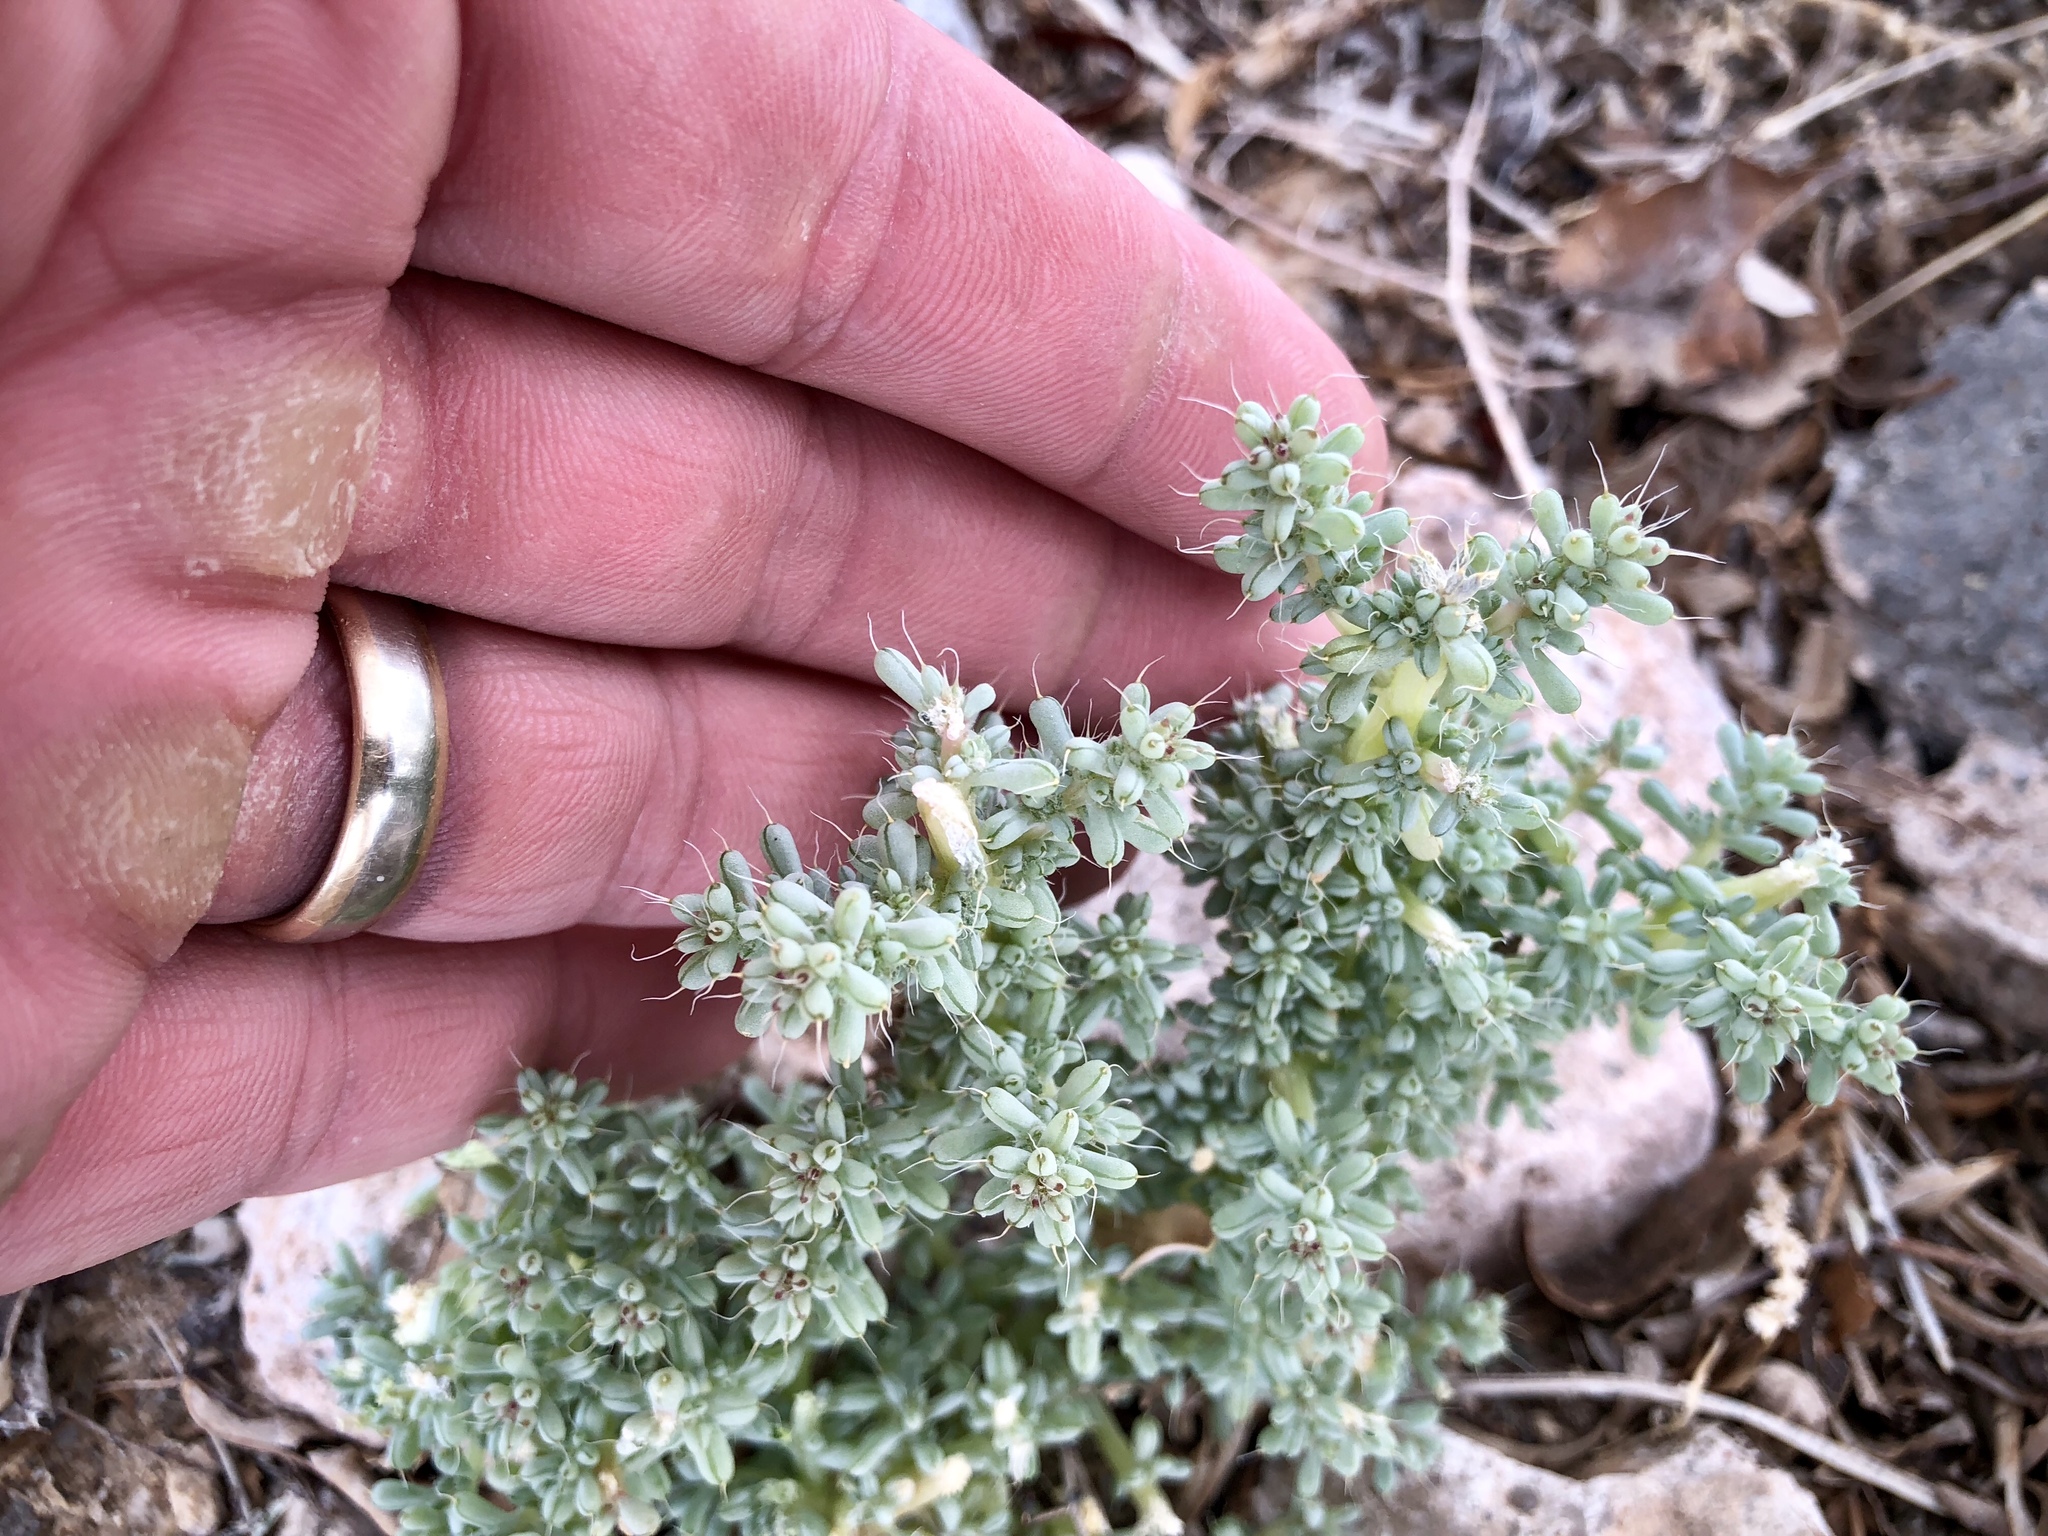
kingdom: Plantae
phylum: Tracheophyta
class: Magnoliopsida
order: Caryophyllales
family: Amaranthaceae
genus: Halogeton
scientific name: Halogeton glomeratus
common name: Saltlover
